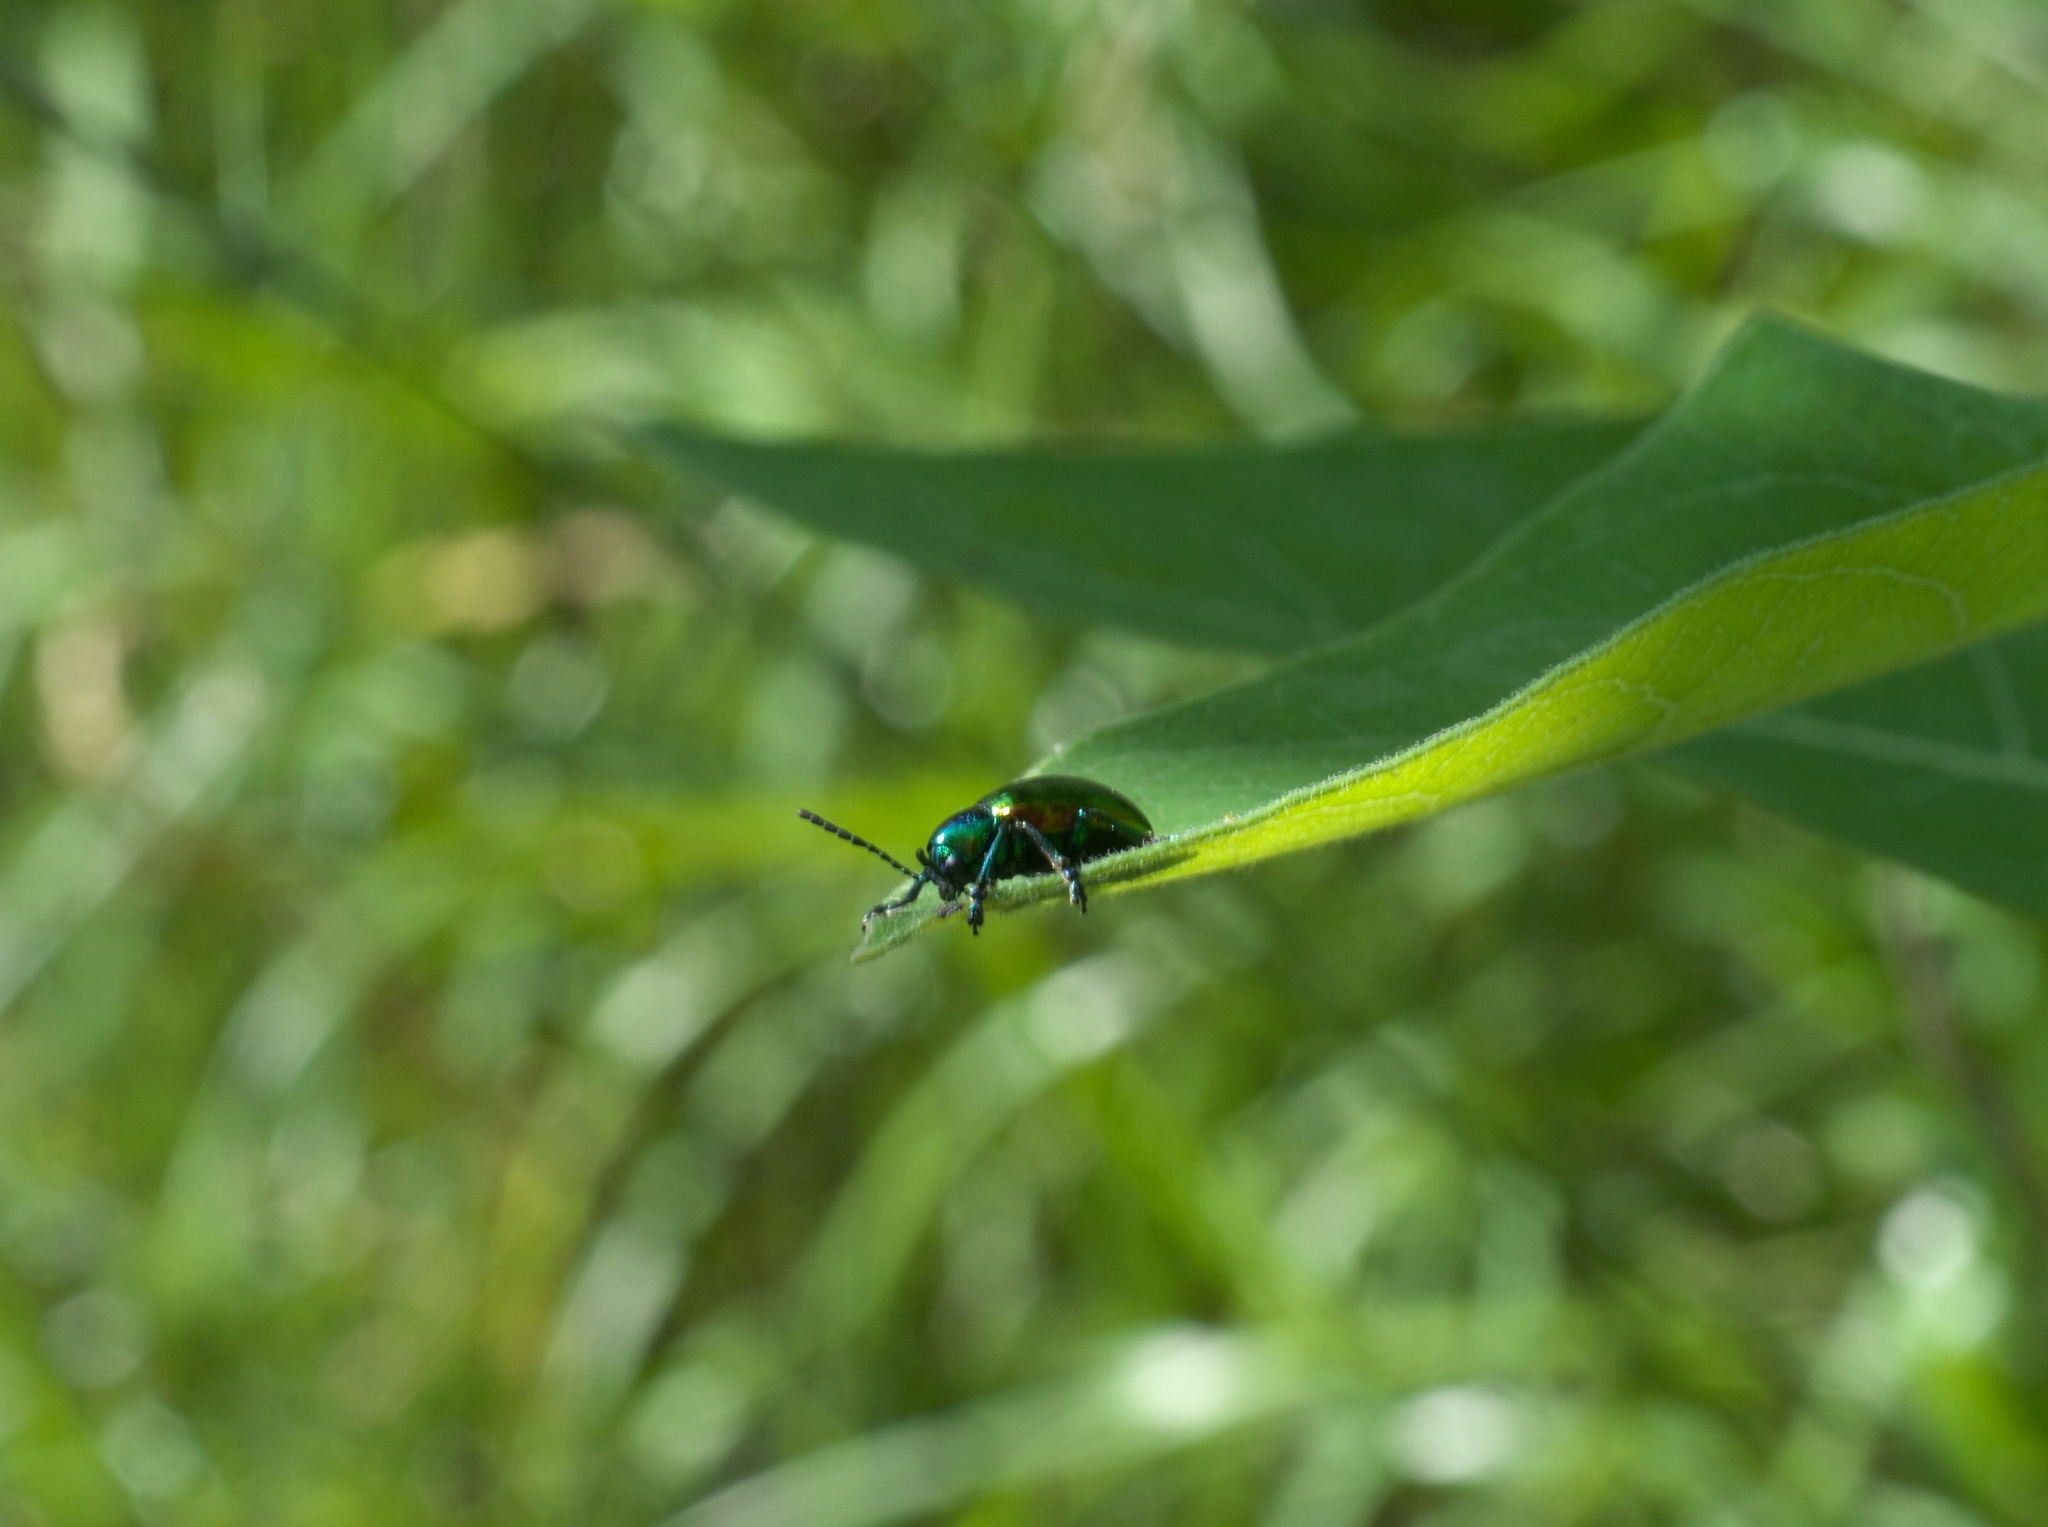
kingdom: Animalia
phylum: Arthropoda
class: Insecta
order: Coleoptera
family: Chrysomelidae
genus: Chrysochus
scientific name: Chrysochus auratus
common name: Dogbane leaf beetle
